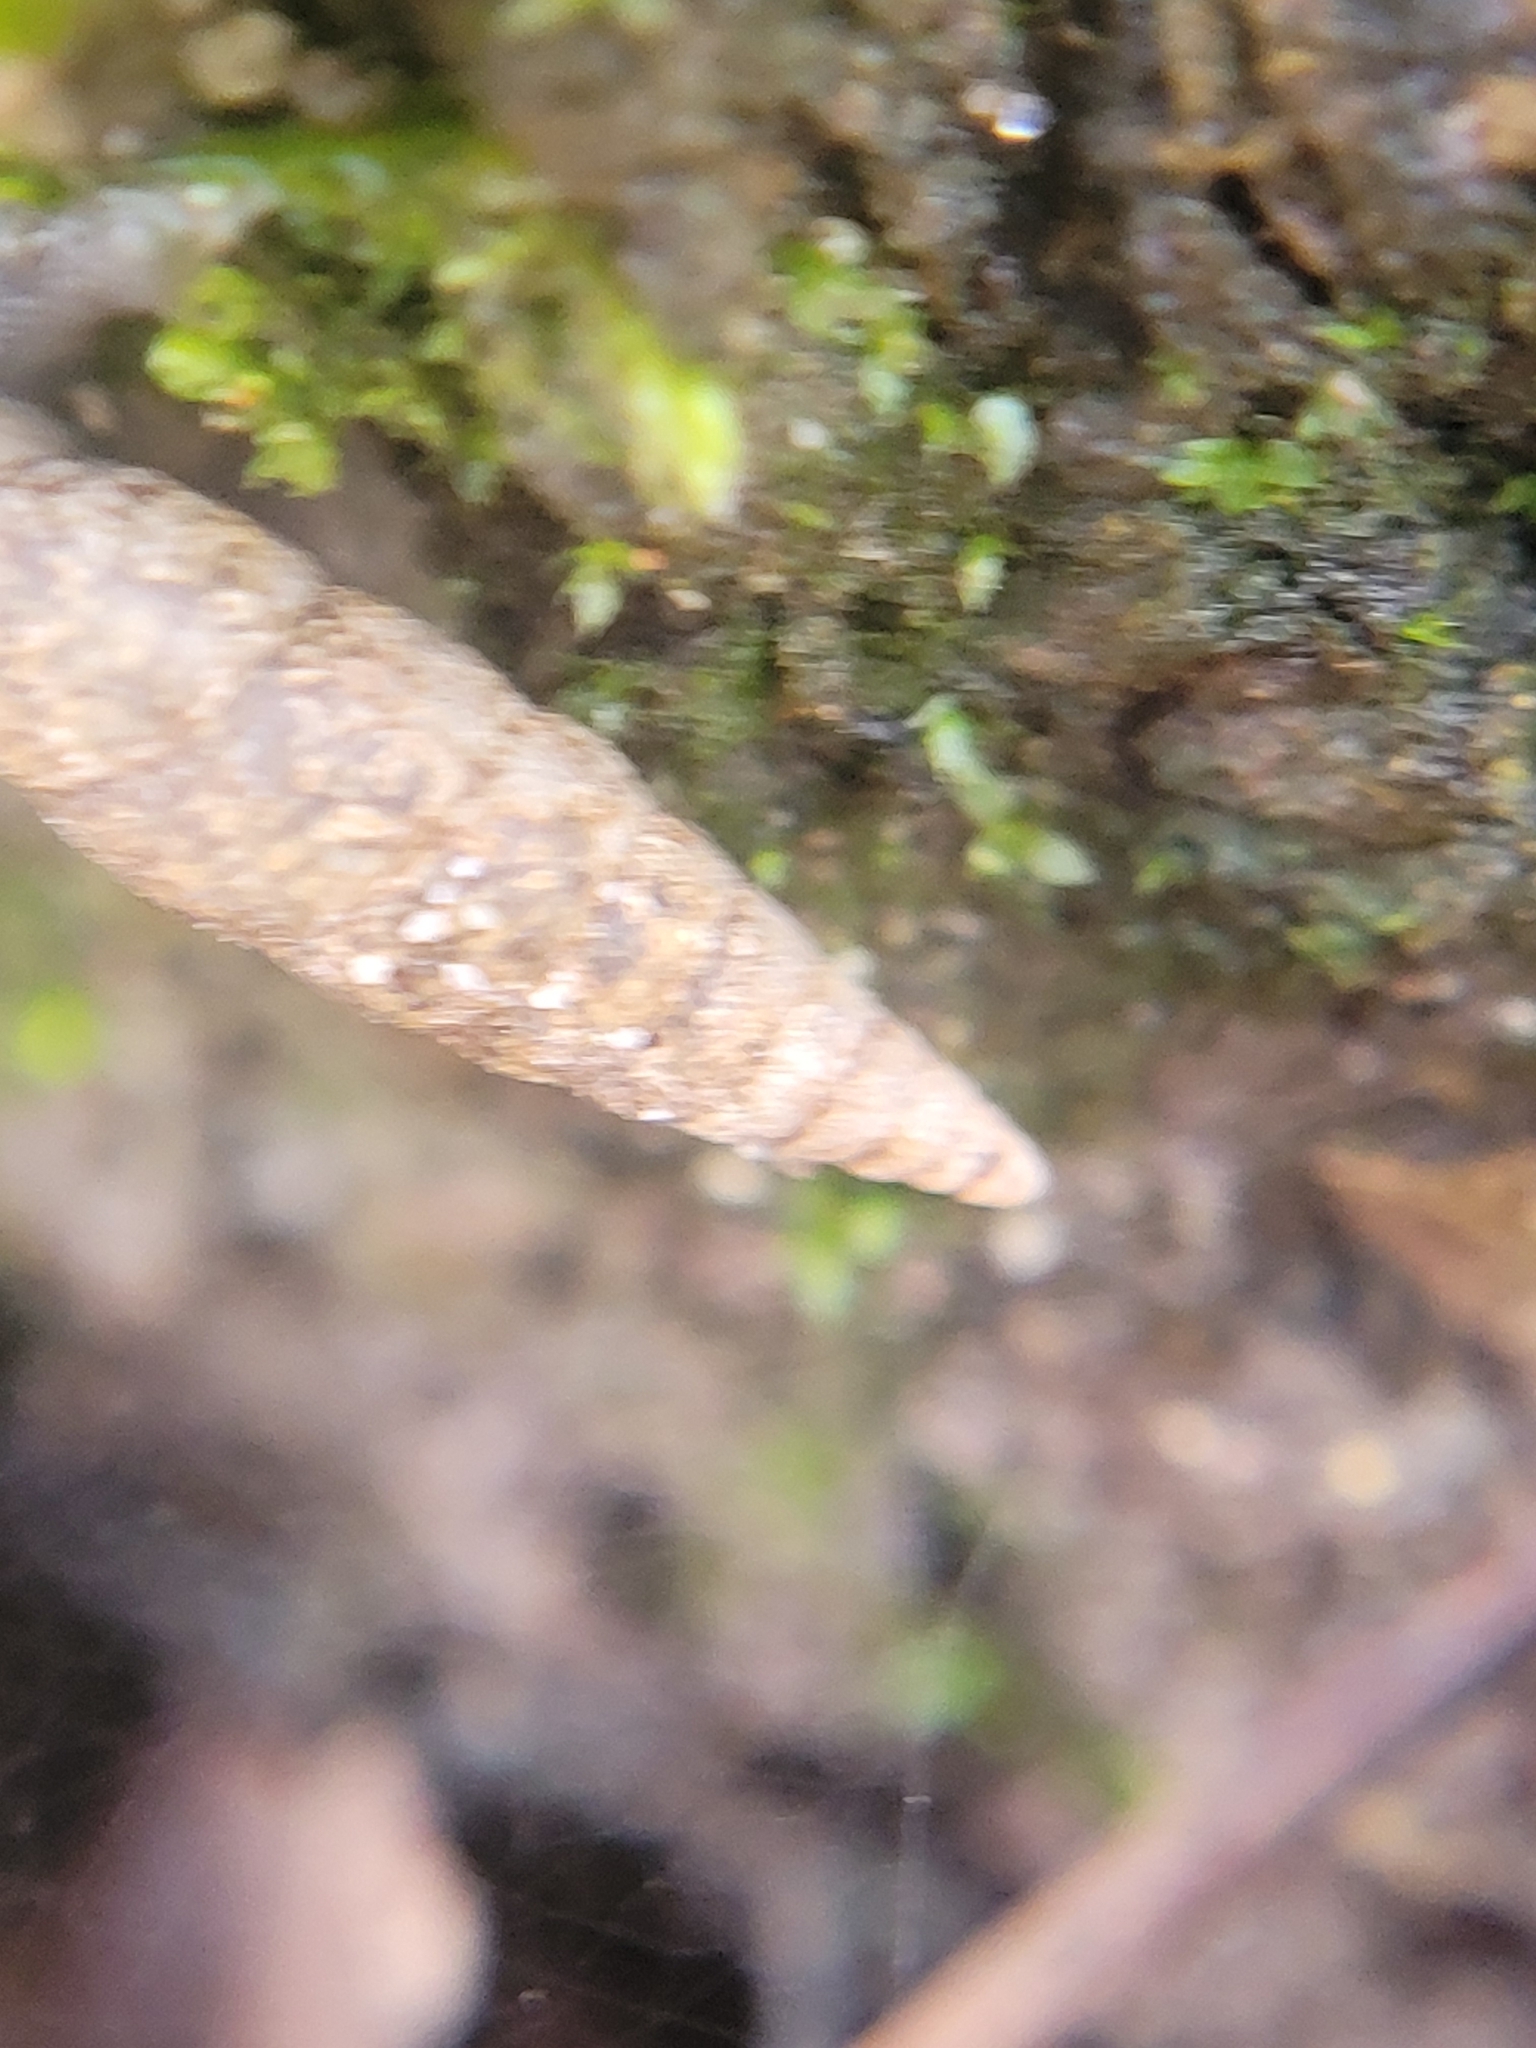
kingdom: Animalia
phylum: Mollusca
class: Gastropoda
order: Stylommatophora
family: Clausiliidae
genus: Cochlodina
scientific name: Cochlodina laminata
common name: Plaited door snail
